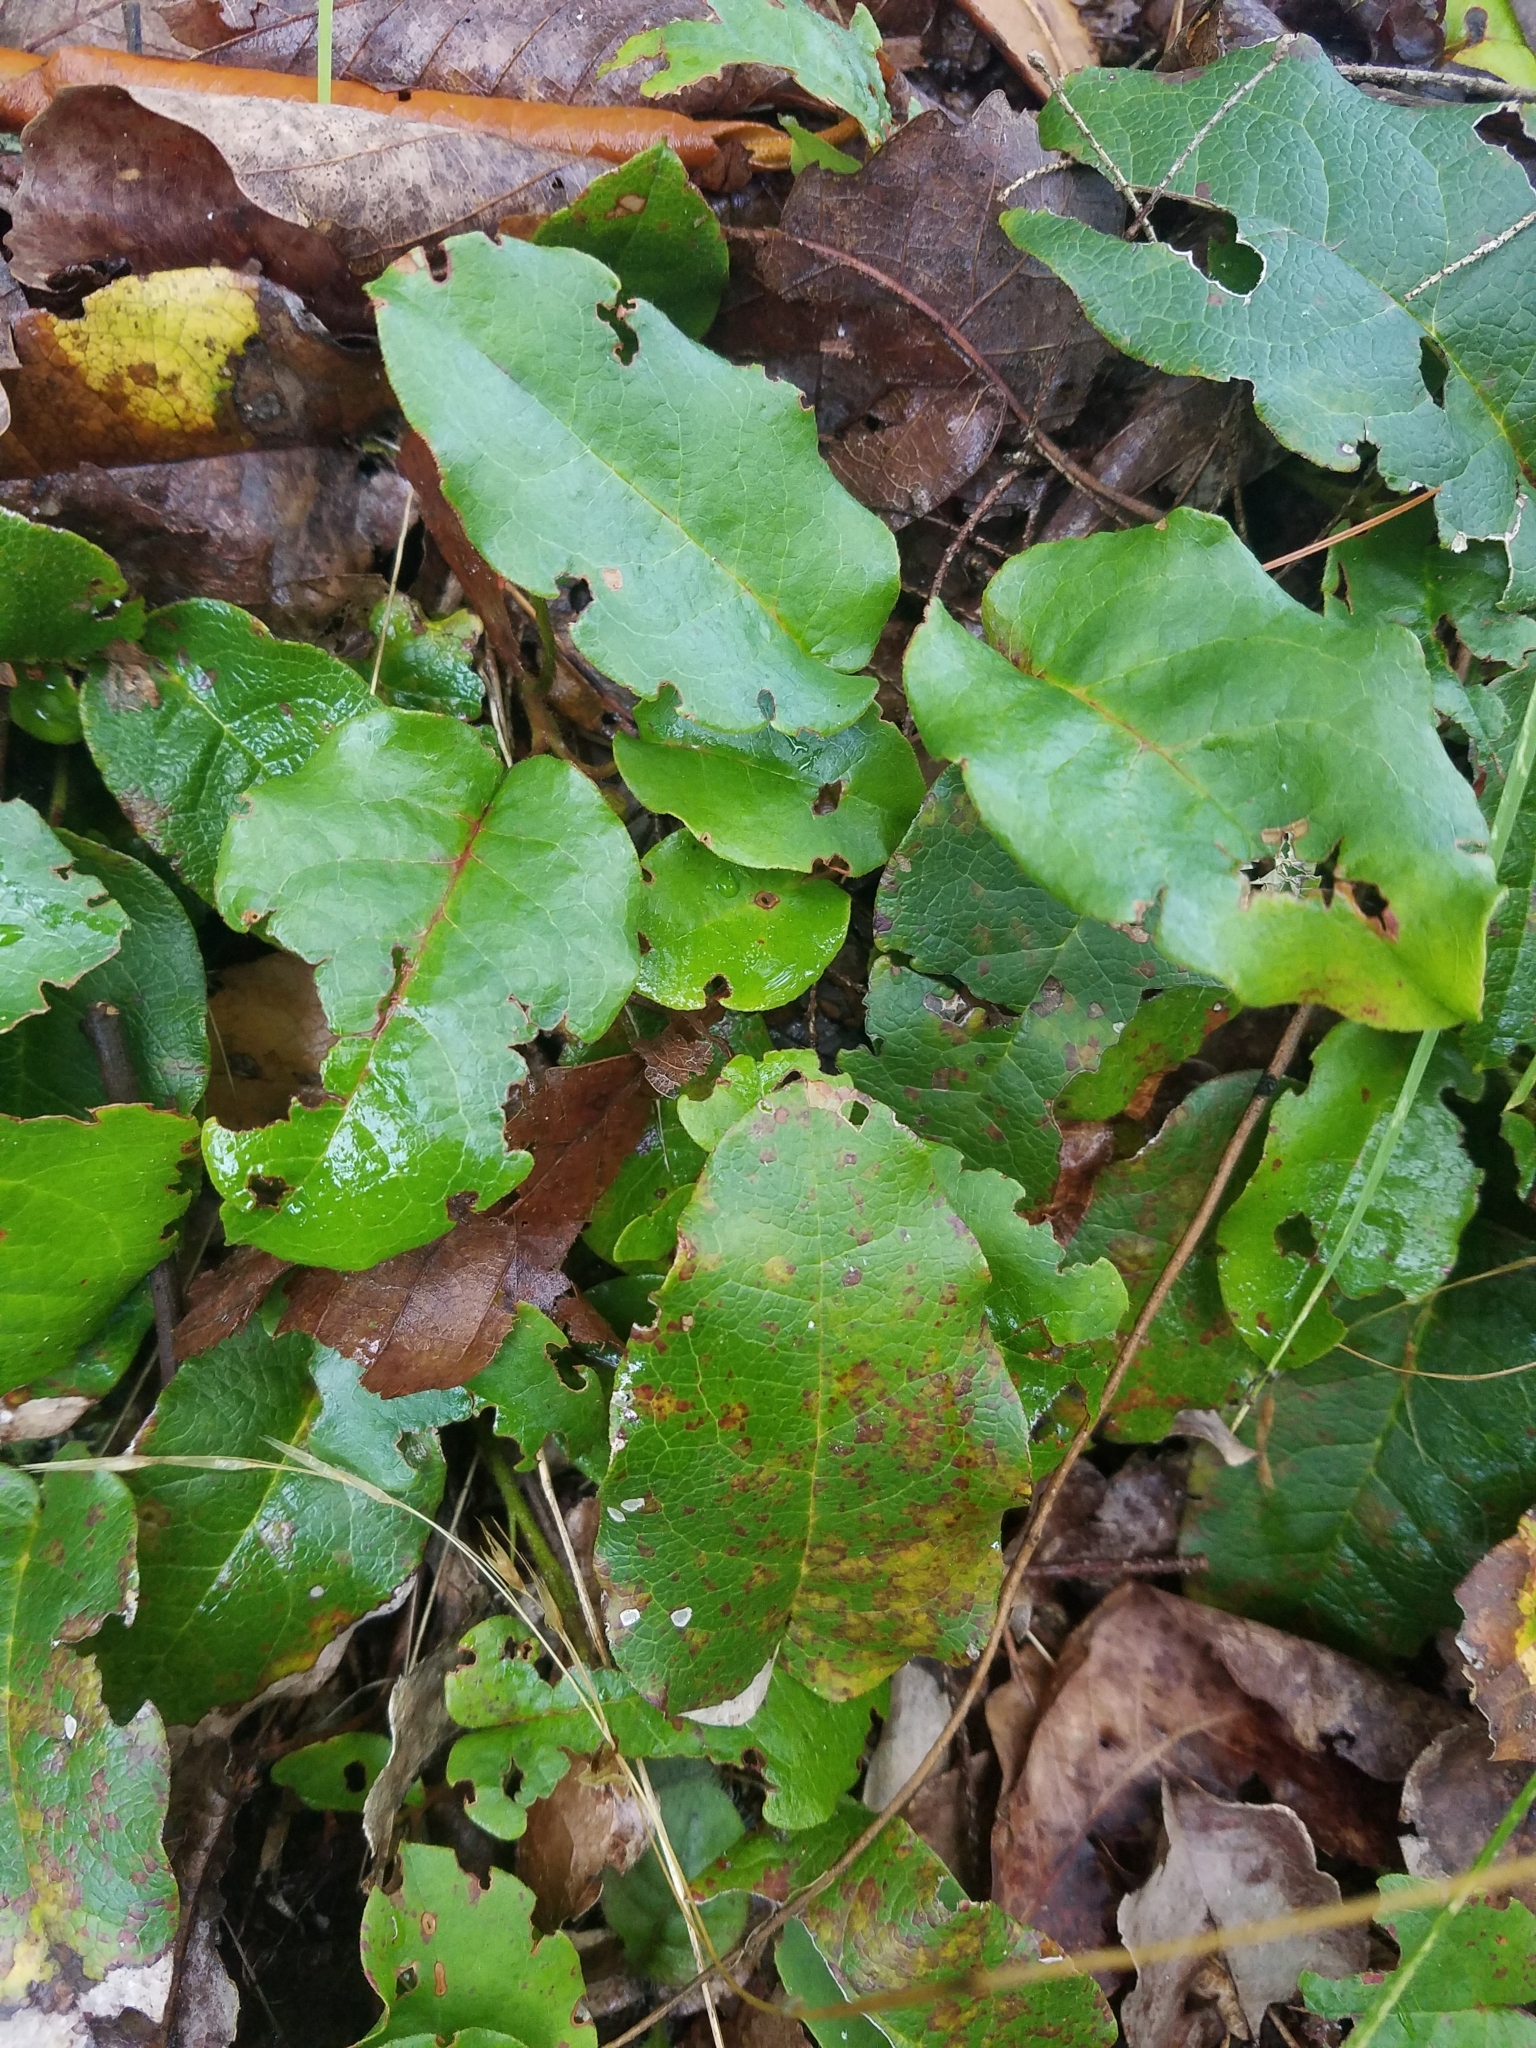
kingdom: Plantae
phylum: Tracheophyta
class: Magnoliopsida
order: Ericales
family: Ericaceae
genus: Epigaea
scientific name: Epigaea repens
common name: Gravelroot
